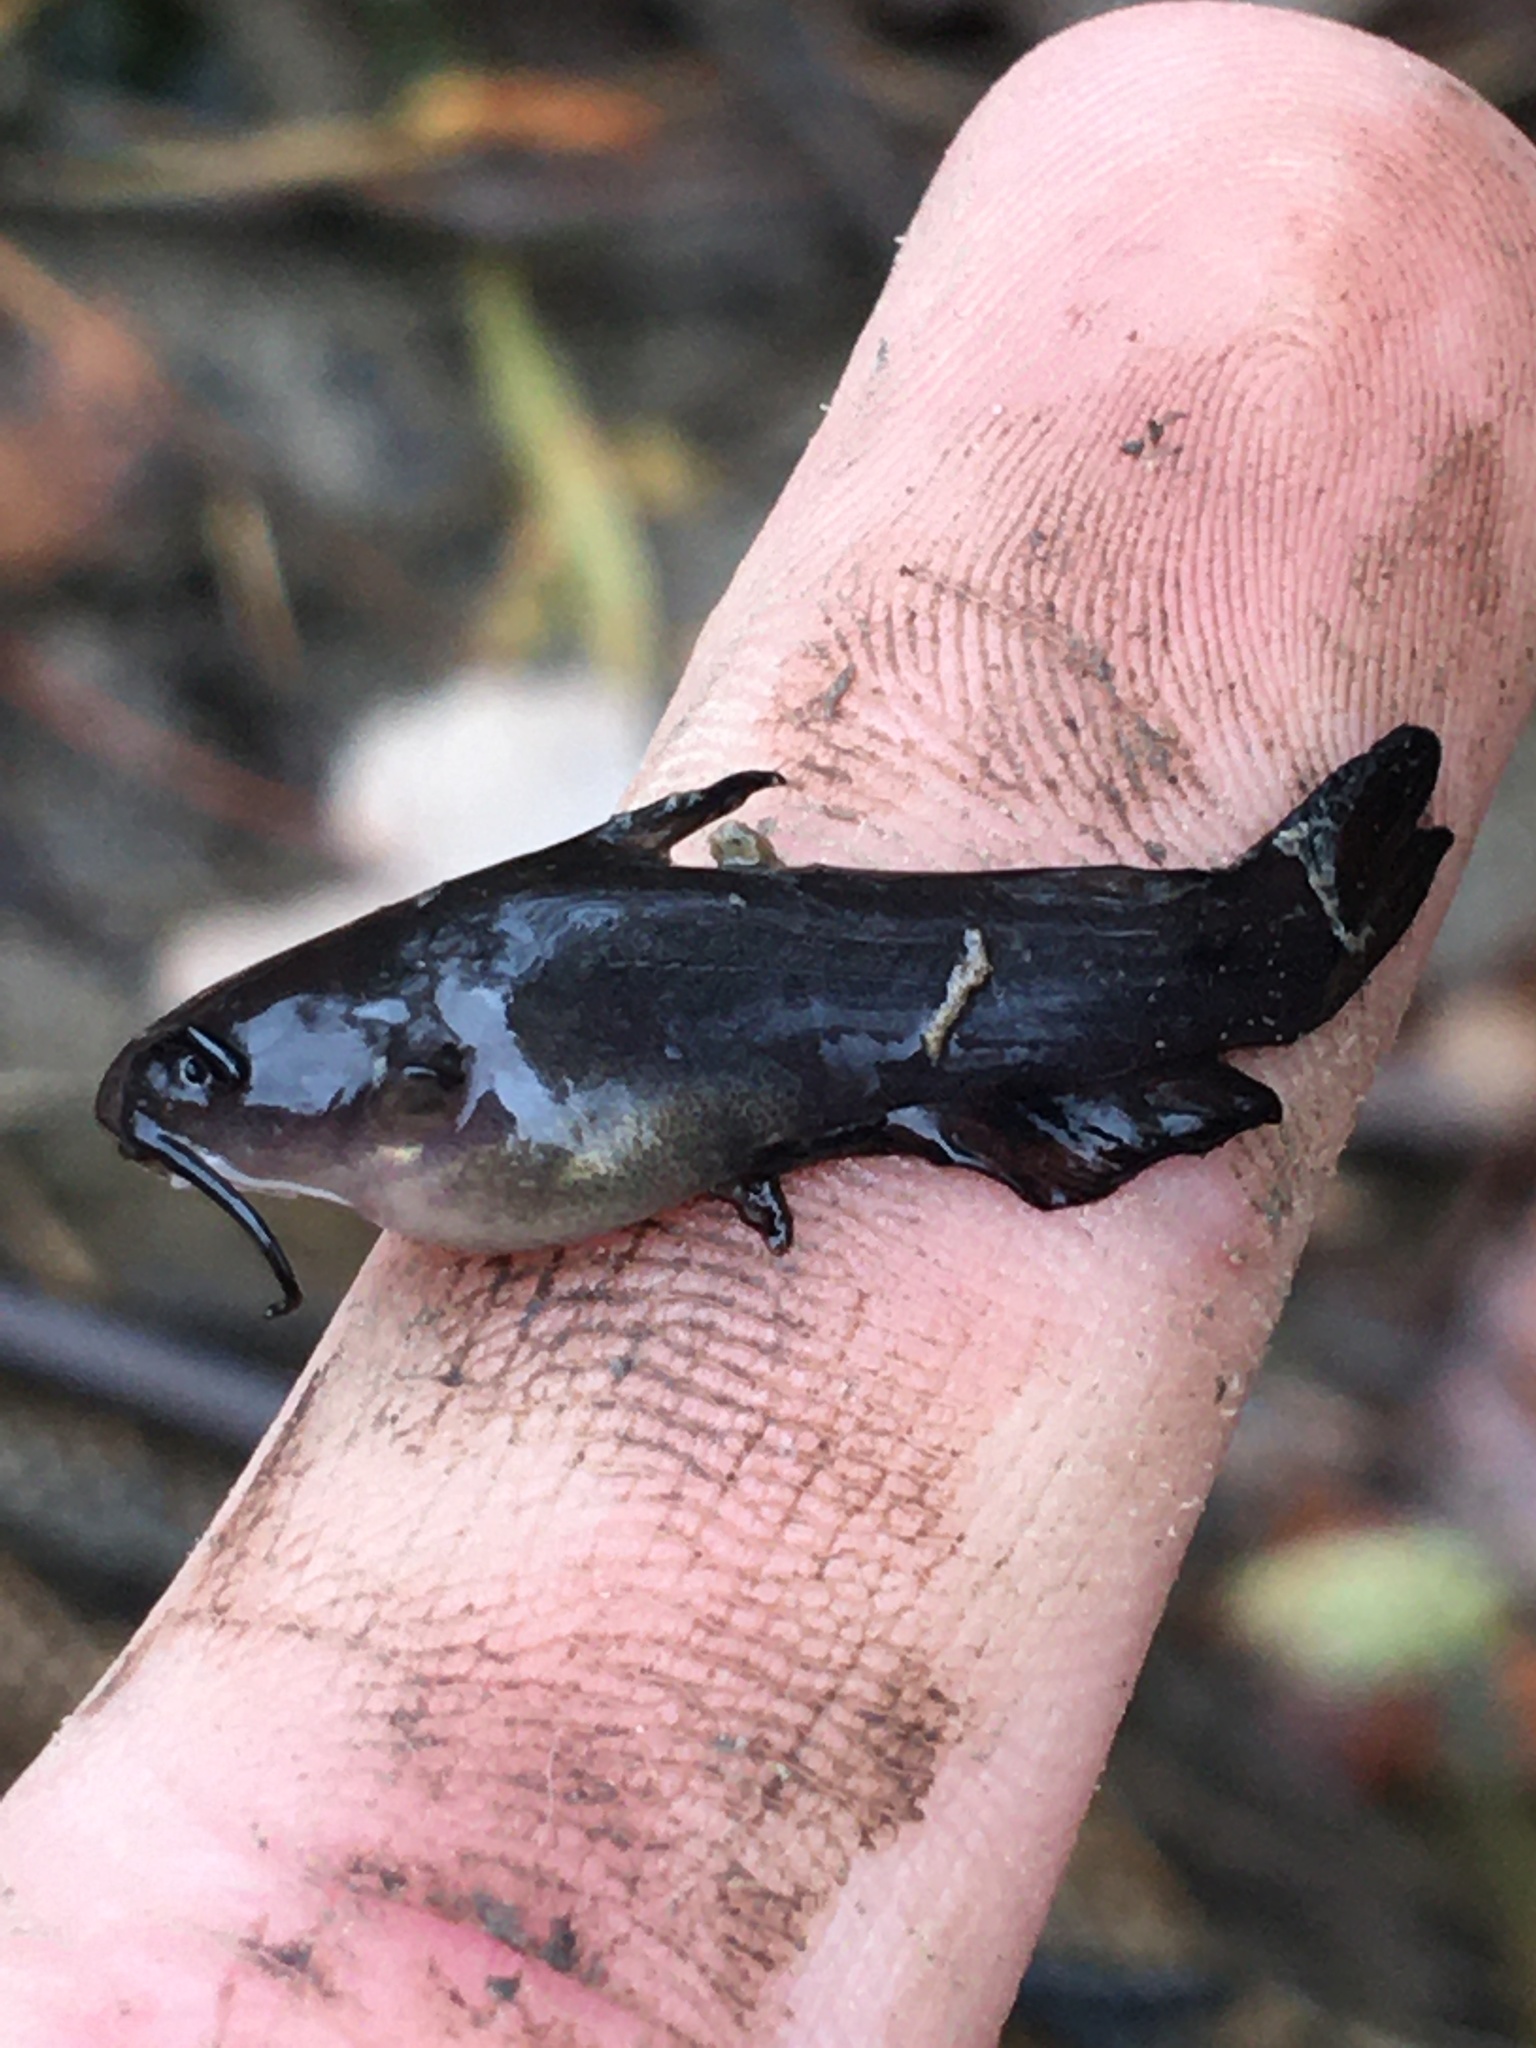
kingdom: Animalia
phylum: Chordata
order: Siluriformes
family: Ictaluridae
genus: Ameiurus
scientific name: Ameiurus natalis
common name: Yellow bullhead
